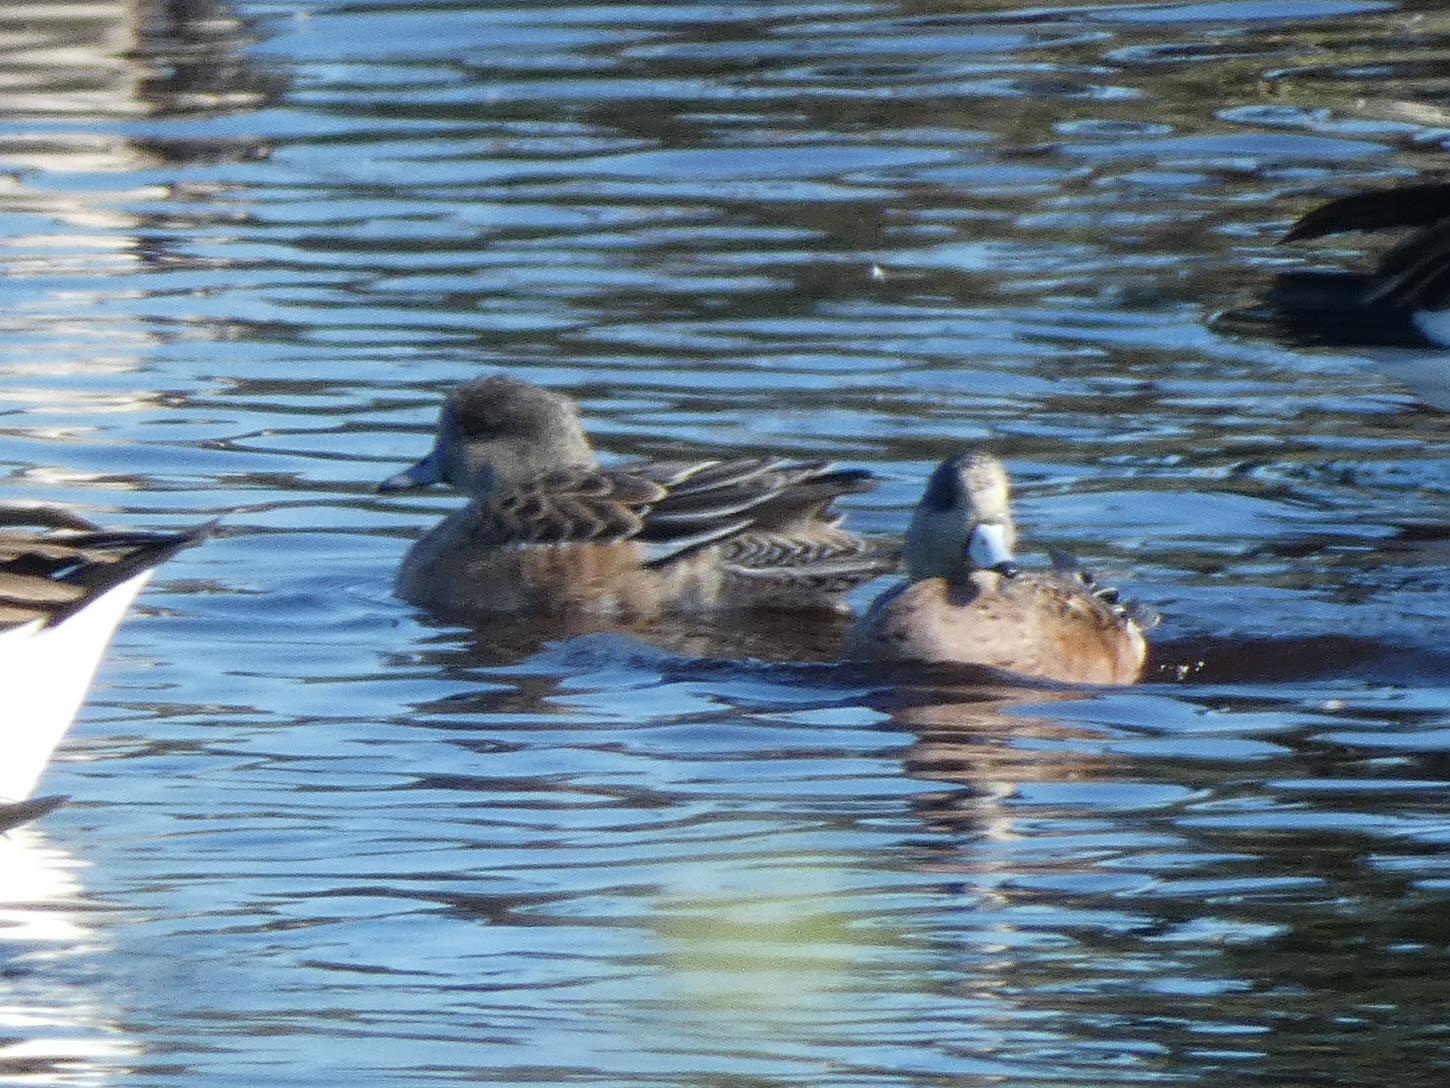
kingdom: Animalia
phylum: Chordata
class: Aves
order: Anseriformes
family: Anatidae
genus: Mareca
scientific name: Mareca americana
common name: American wigeon
